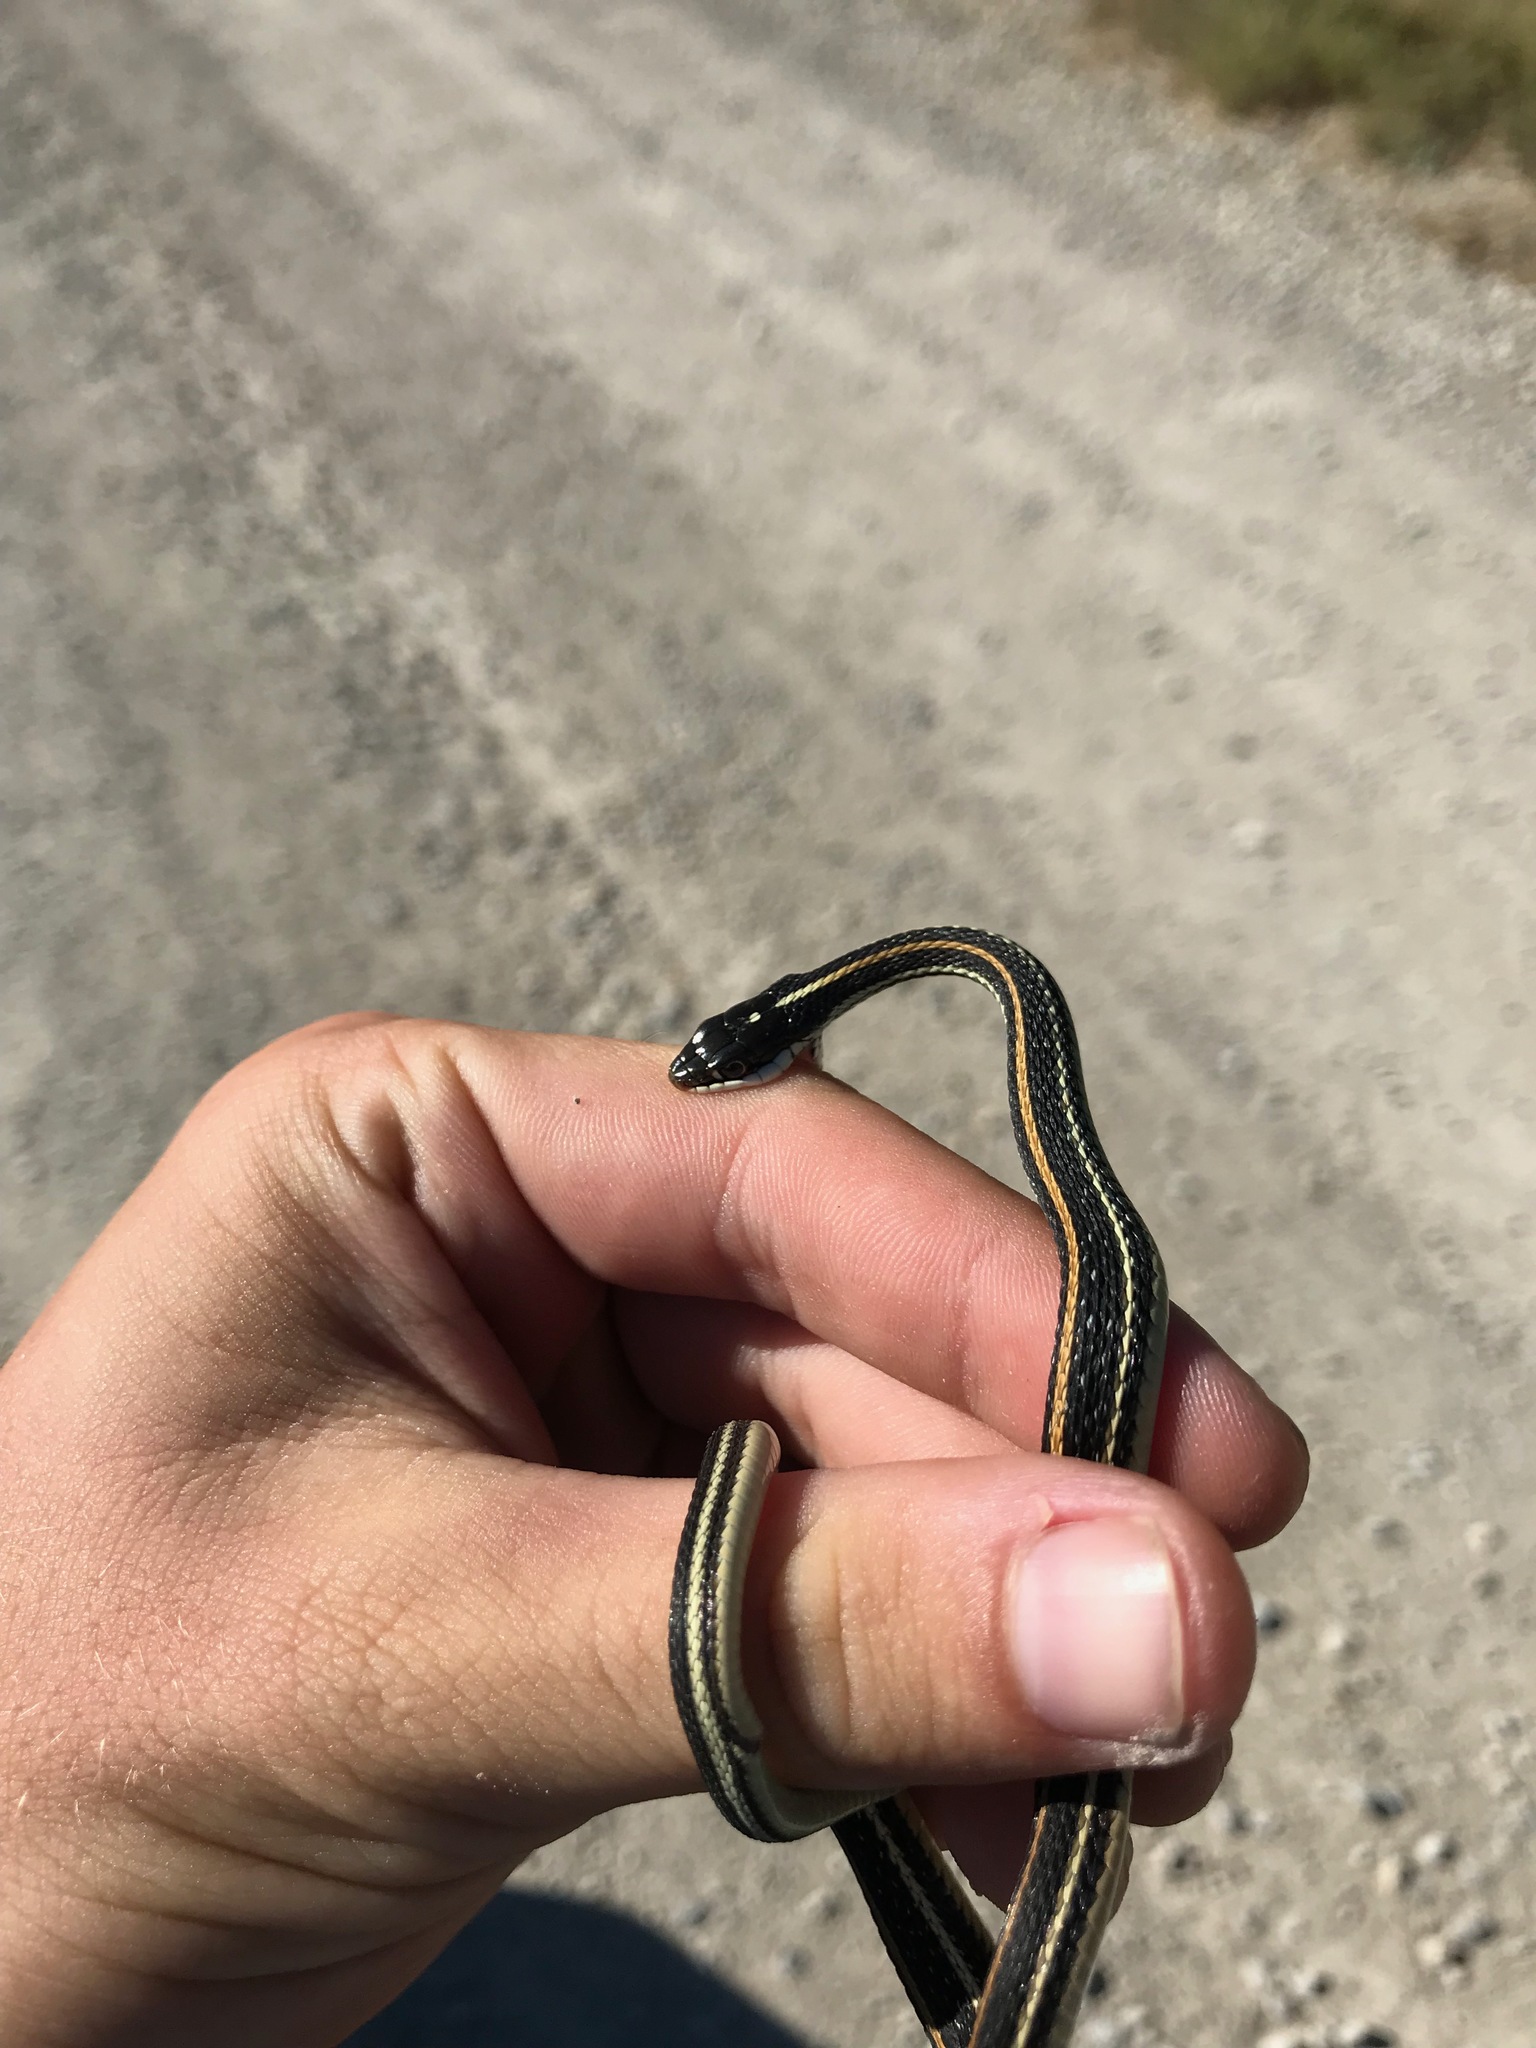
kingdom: Animalia
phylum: Chordata
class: Squamata
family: Colubridae
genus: Thamnophis
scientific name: Thamnophis proximus
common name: Western ribbon snake
